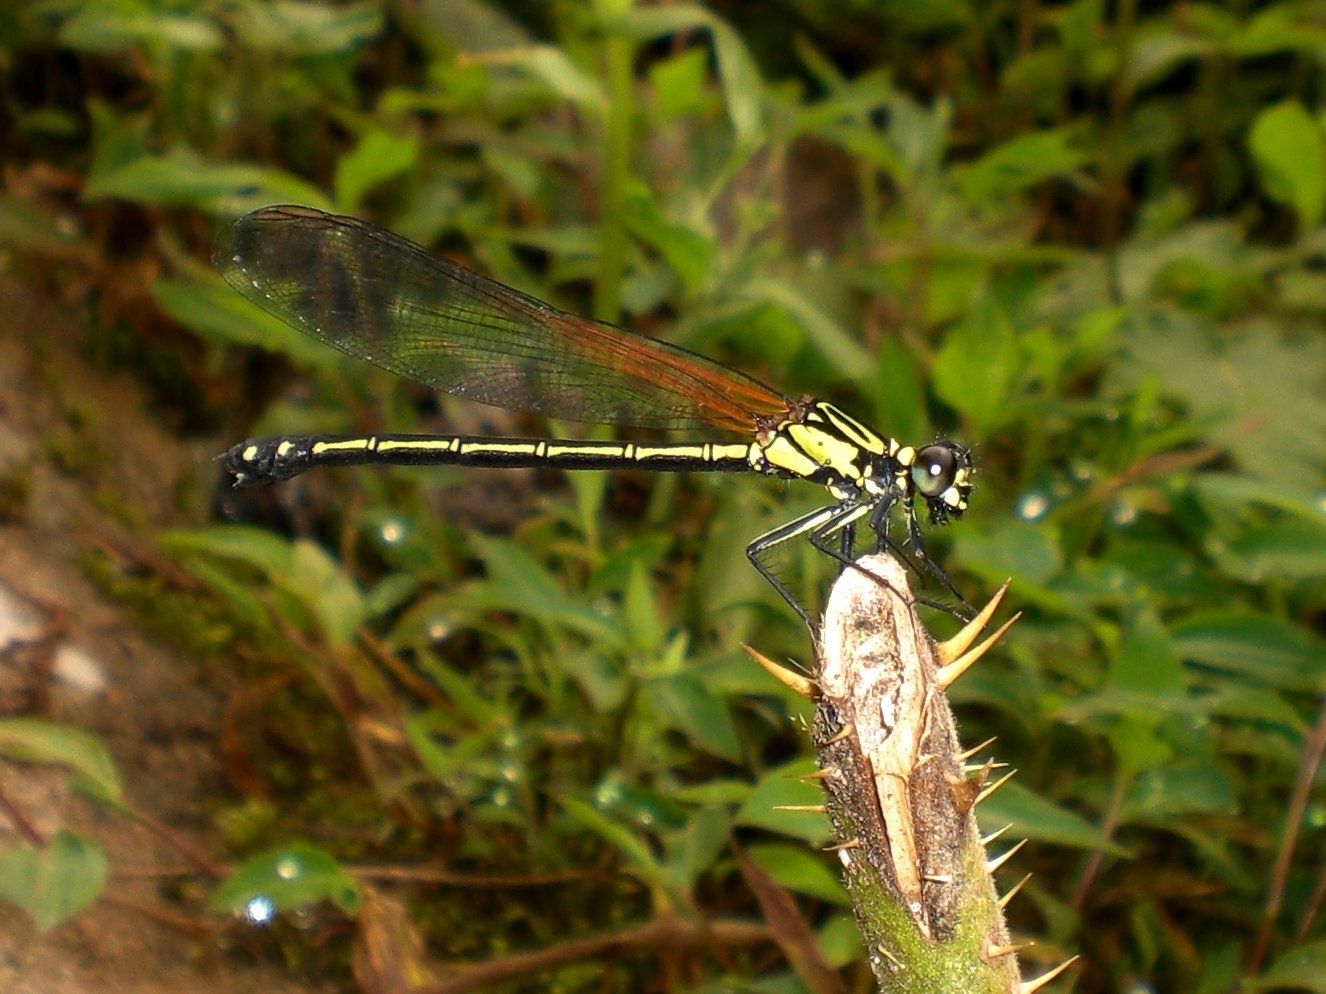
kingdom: Animalia
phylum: Arthropoda
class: Insecta
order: Odonata
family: Euphaeidae
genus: Anisopleura
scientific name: Anisopleura subplatystyla
